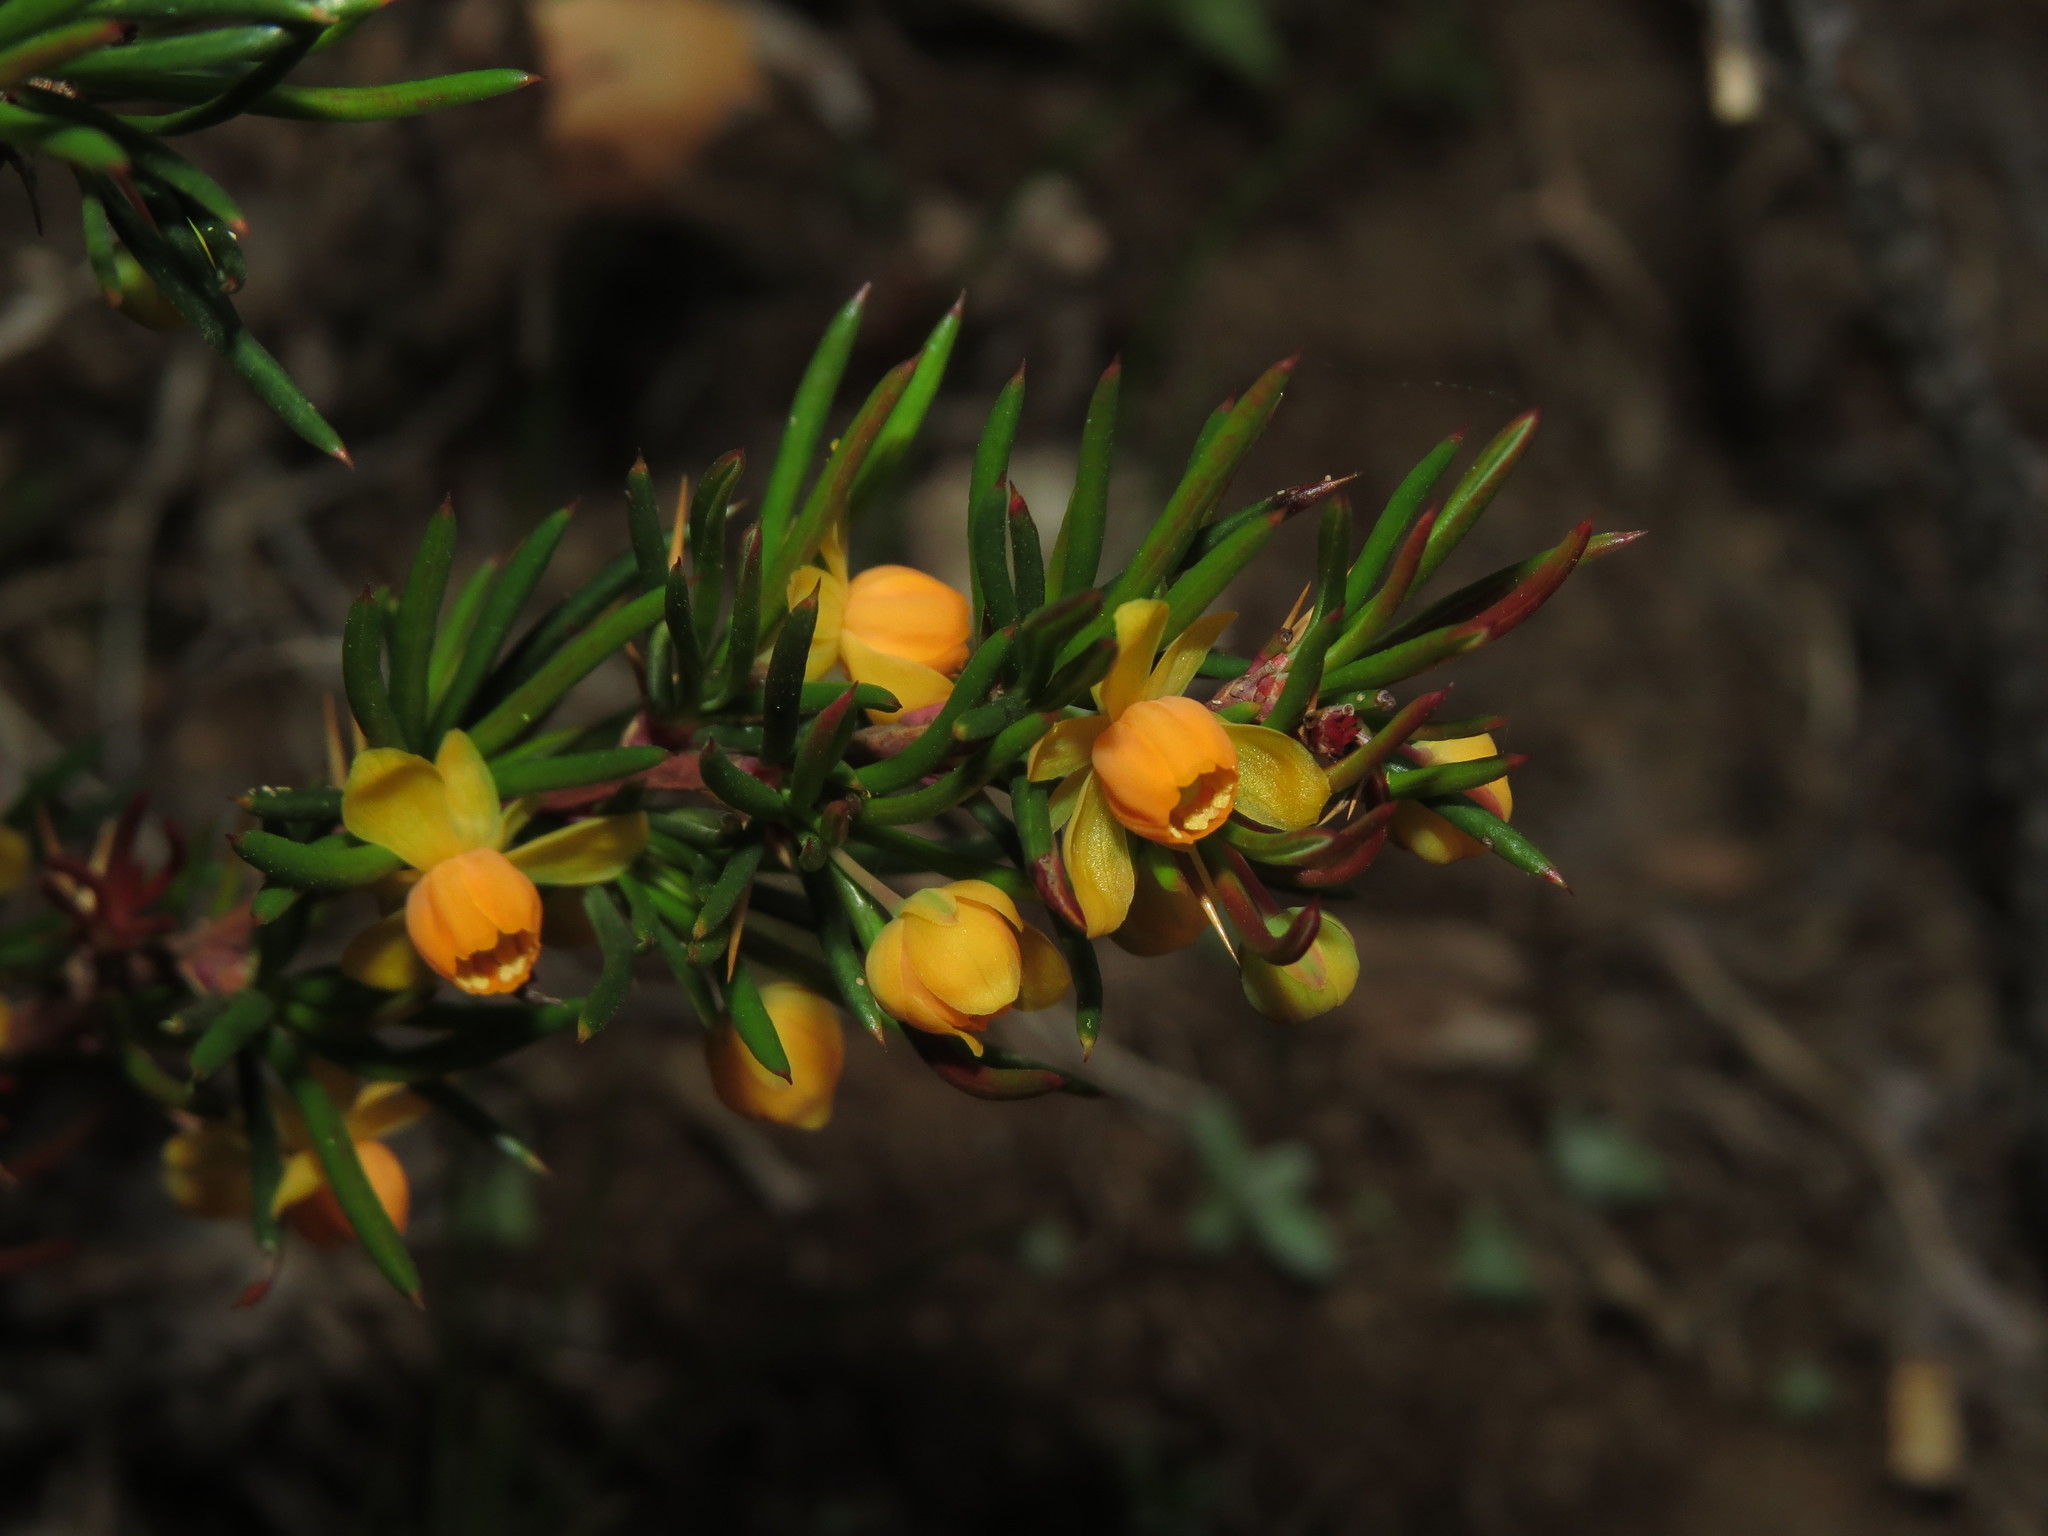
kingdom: Plantae
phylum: Tracheophyta
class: Magnoliopsida
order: Ranunculales
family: Berberidaceae
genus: Berberis
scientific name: Berberis empetrifolia
